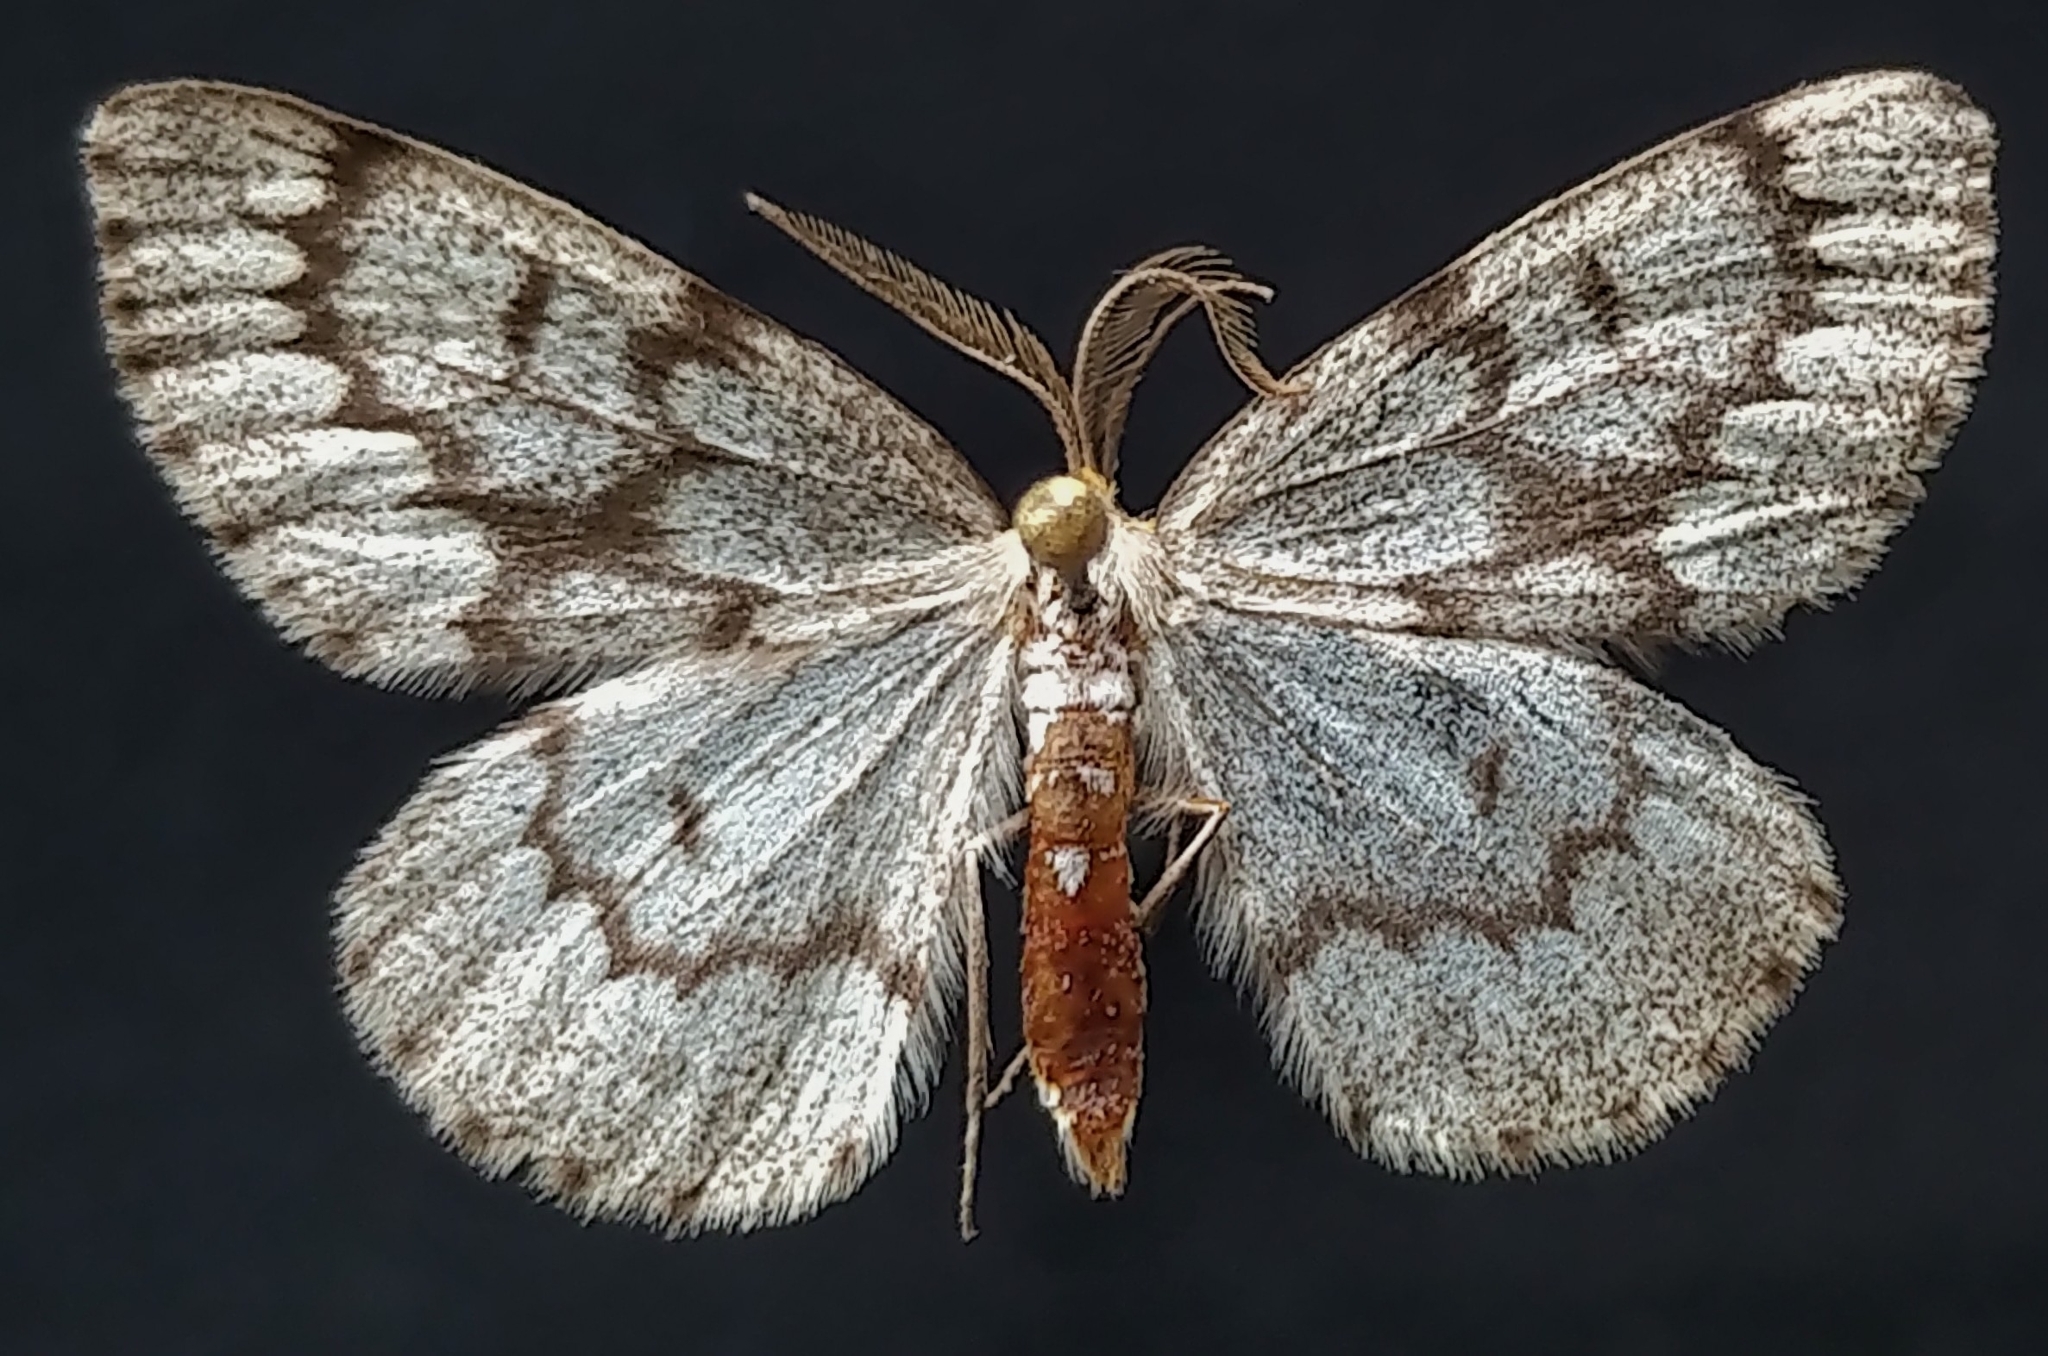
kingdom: Animalia
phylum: Arthropoda
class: Insecta
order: Lepidoptera
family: Geometridae
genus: Nepytia
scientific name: Nepytia canosaria
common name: False hemlock looper
